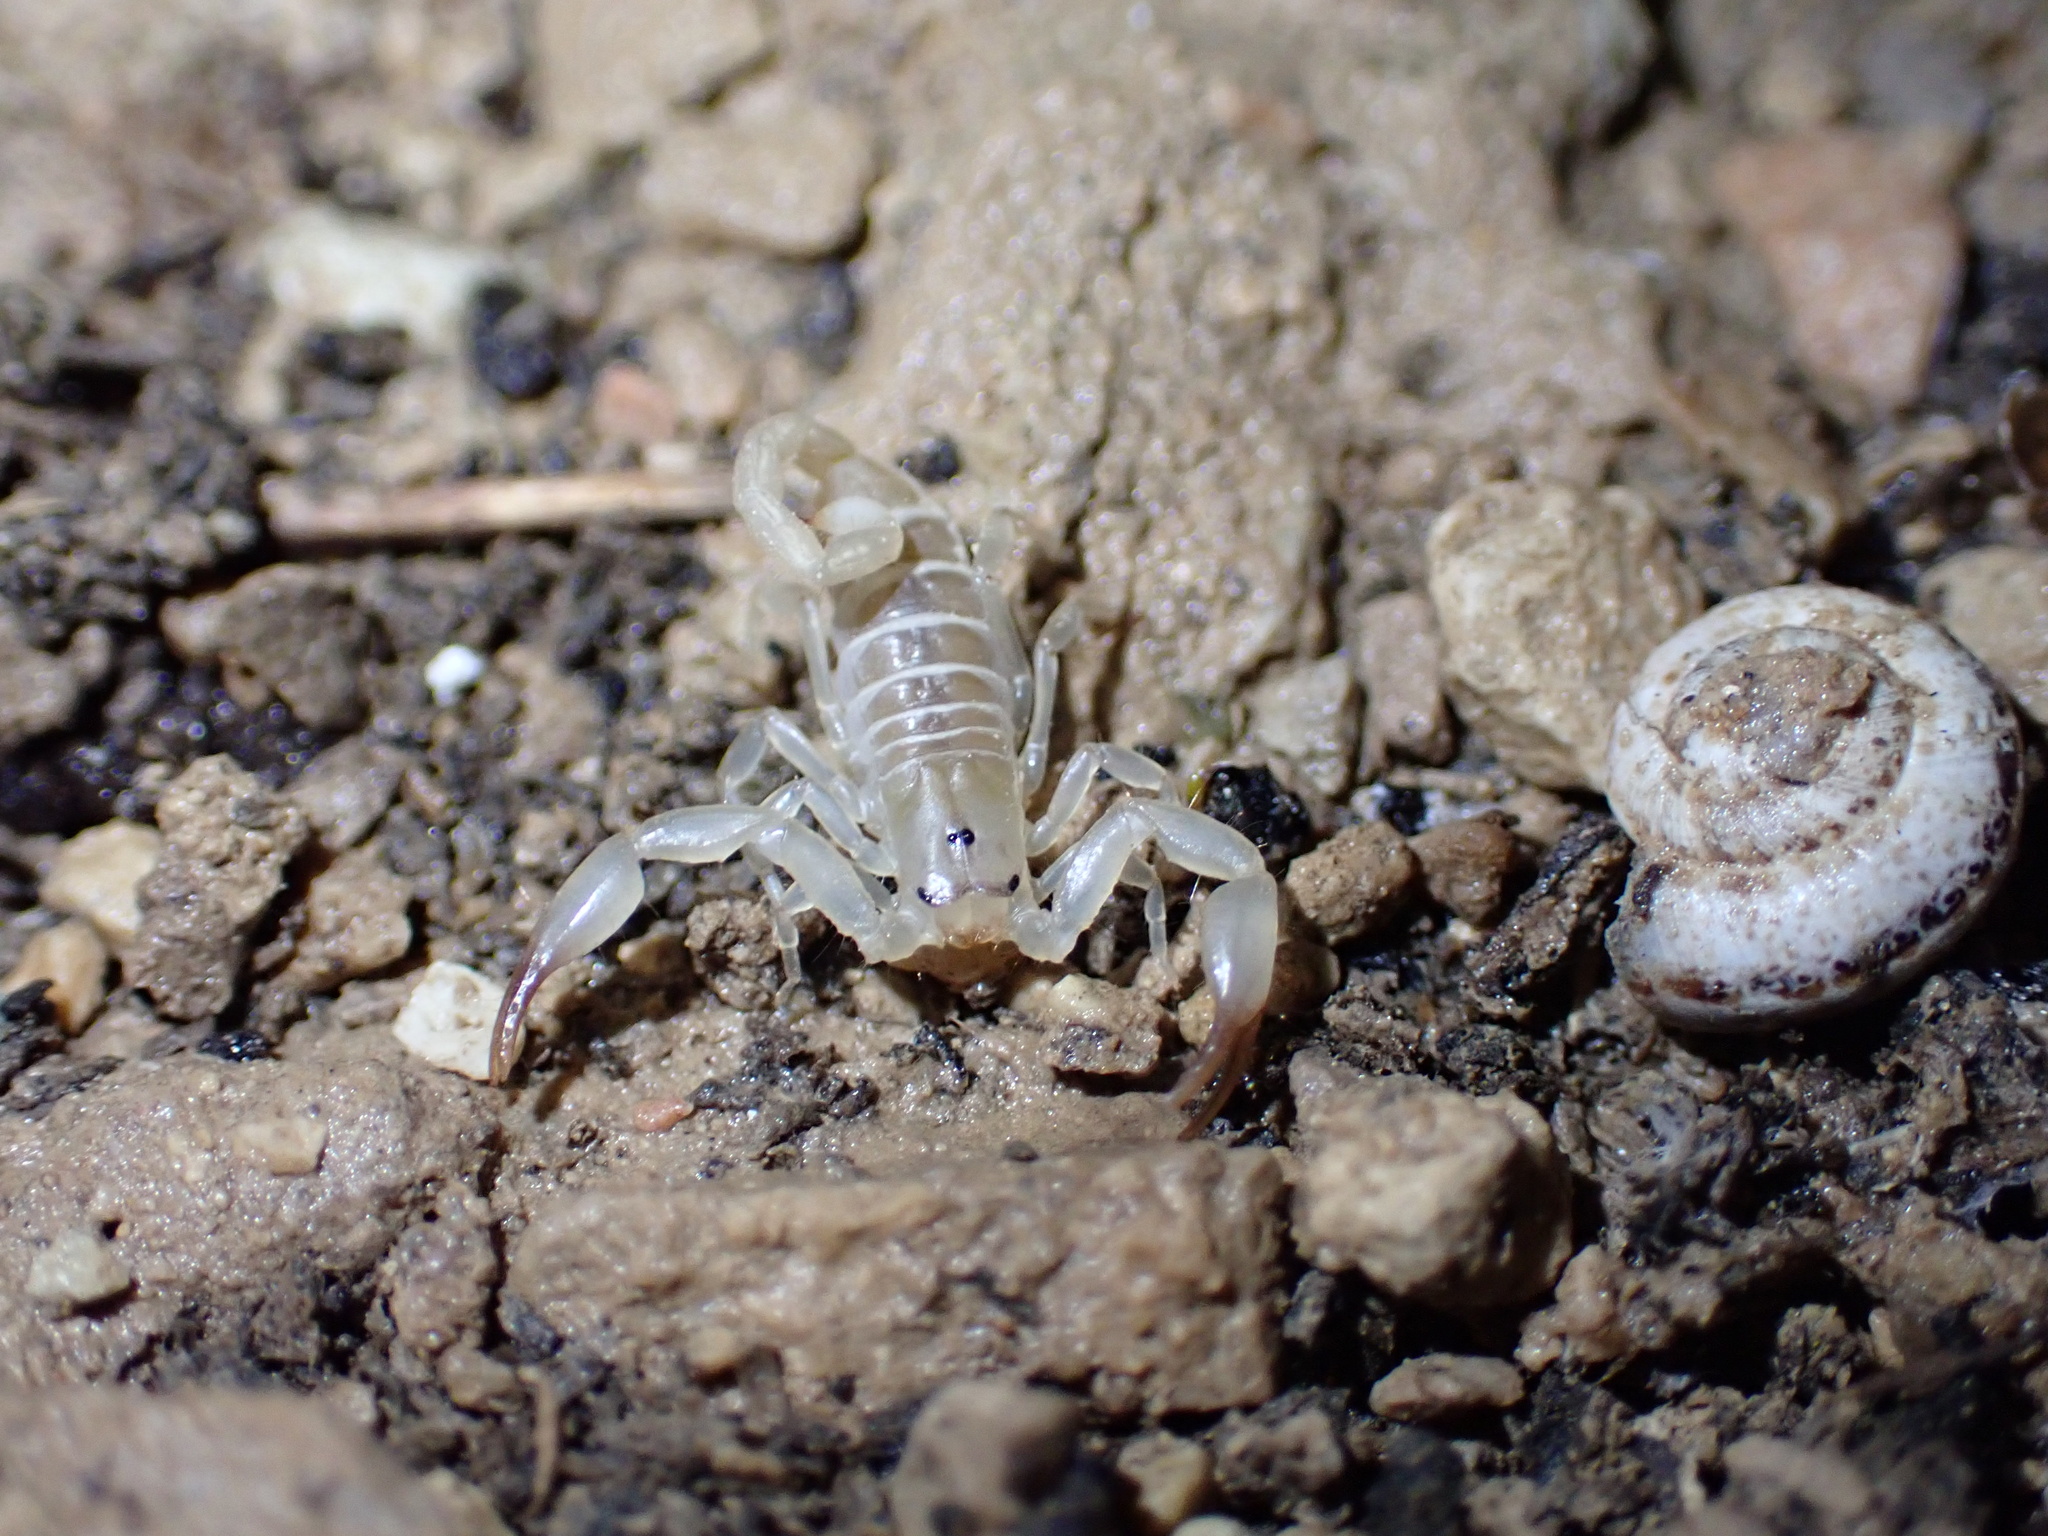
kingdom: Animalia
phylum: Arthropoda
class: Arachnida
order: Scorpiones
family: Hemiscorpiidae
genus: Hemiscorpius
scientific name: Hemiscorpius lepturus
